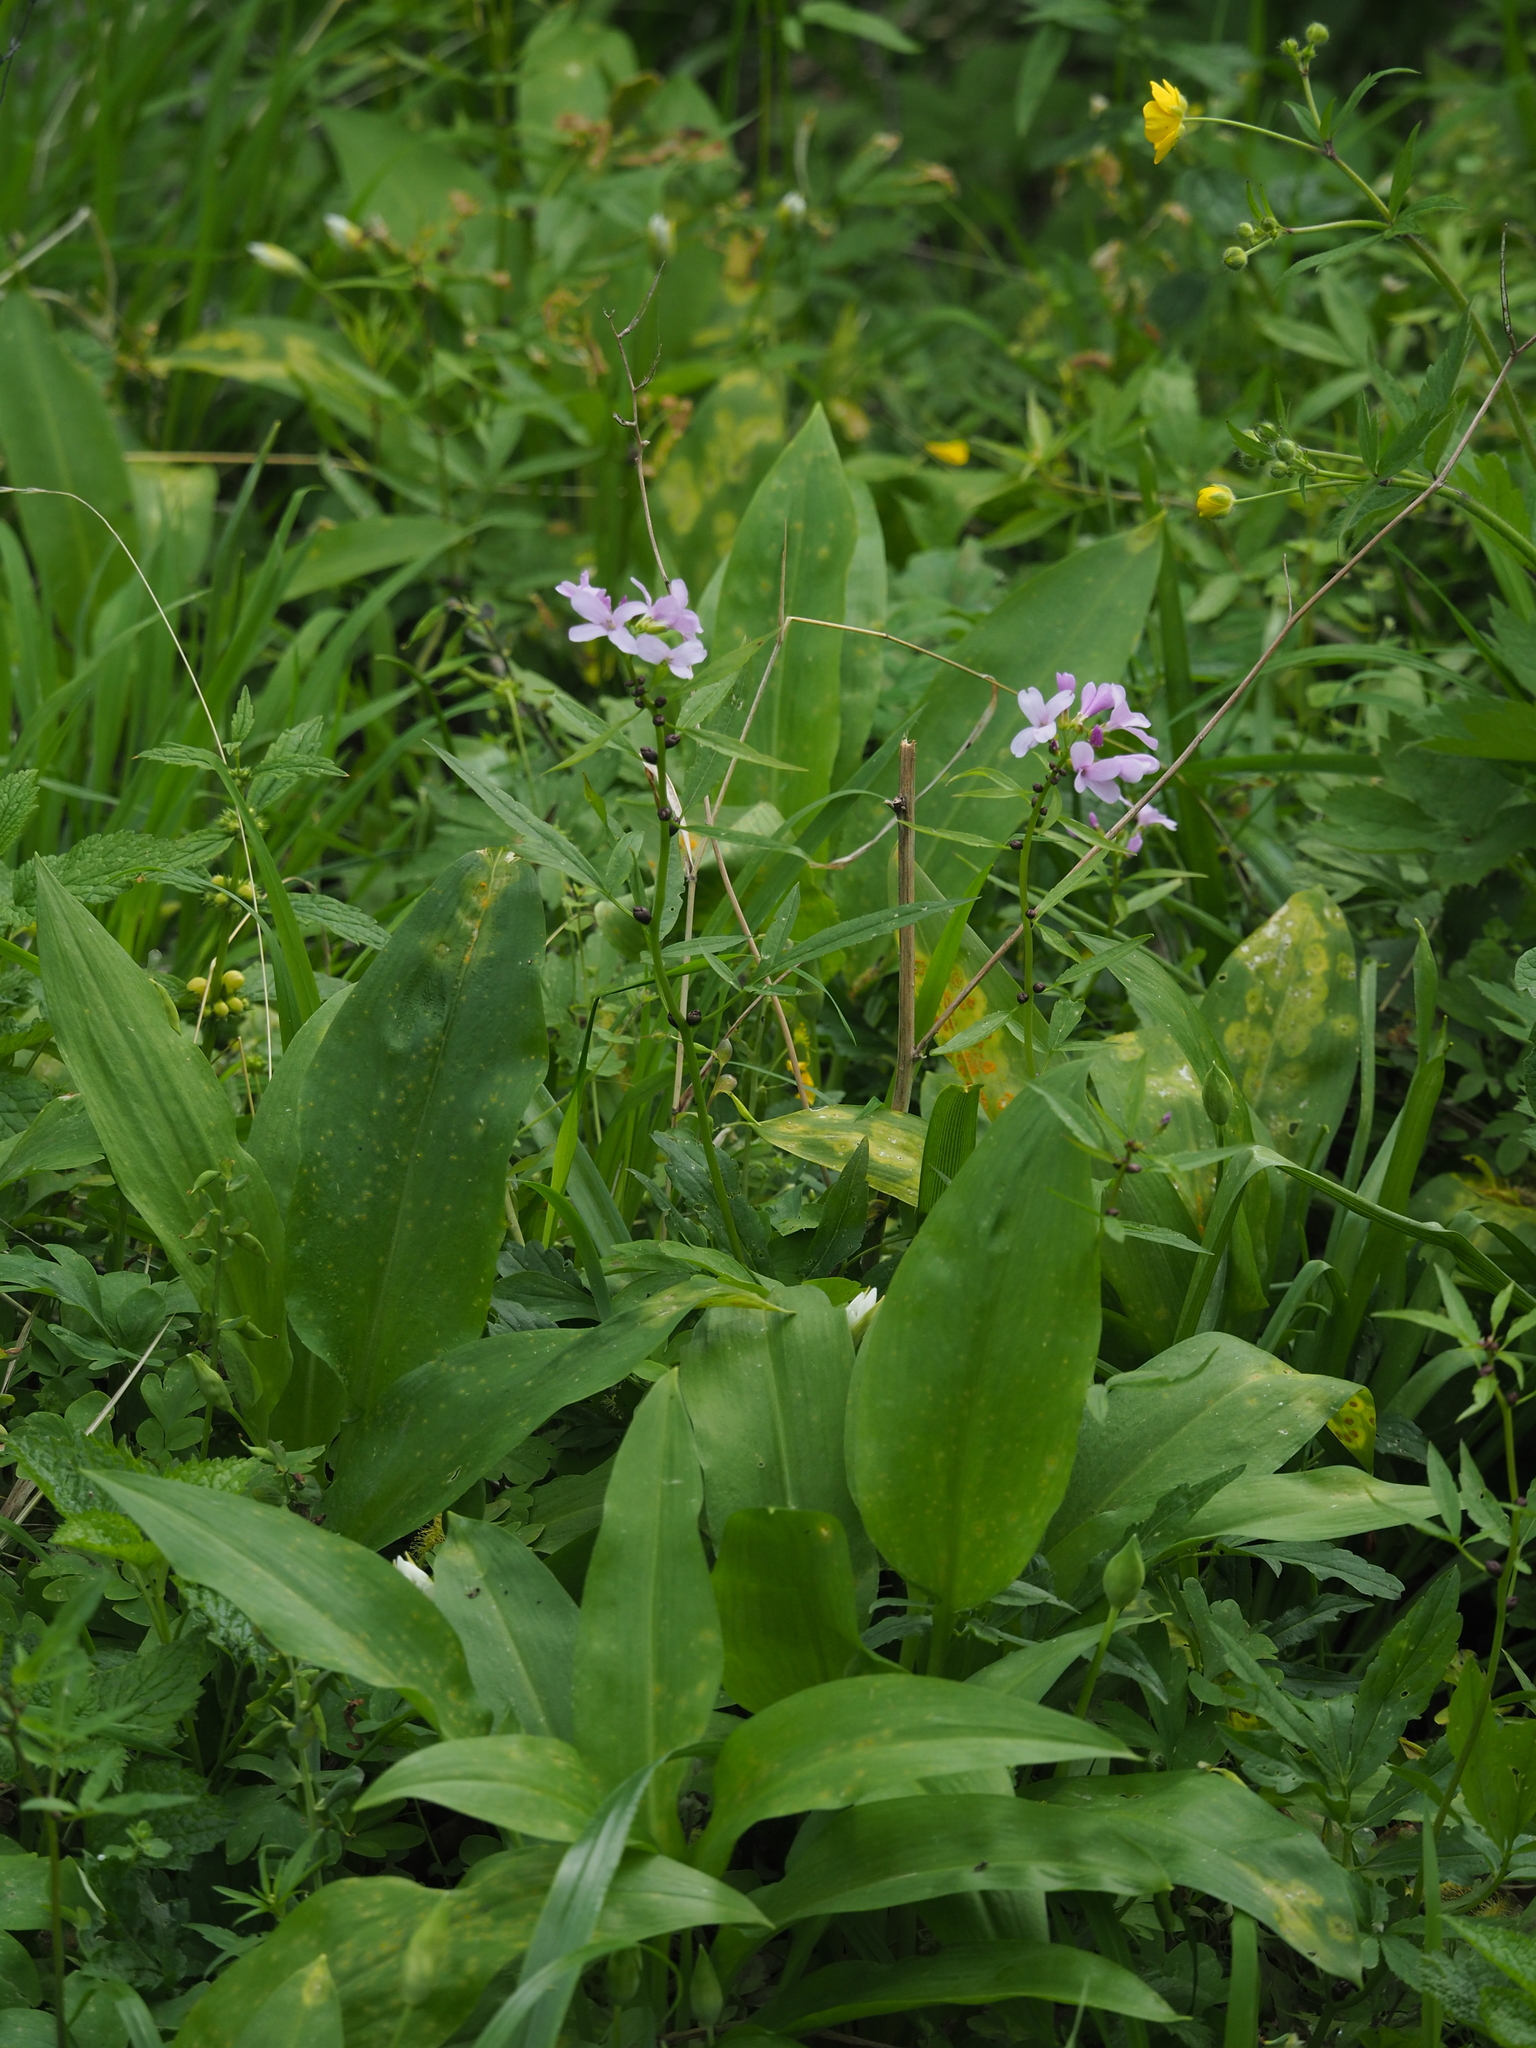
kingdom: Plantae
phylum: Tracheophyta
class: Magnoliopsida
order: Brassicales
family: Brassicaceae
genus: Cardamine
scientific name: Cardamine bulbifera
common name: Coralroot bittercress
